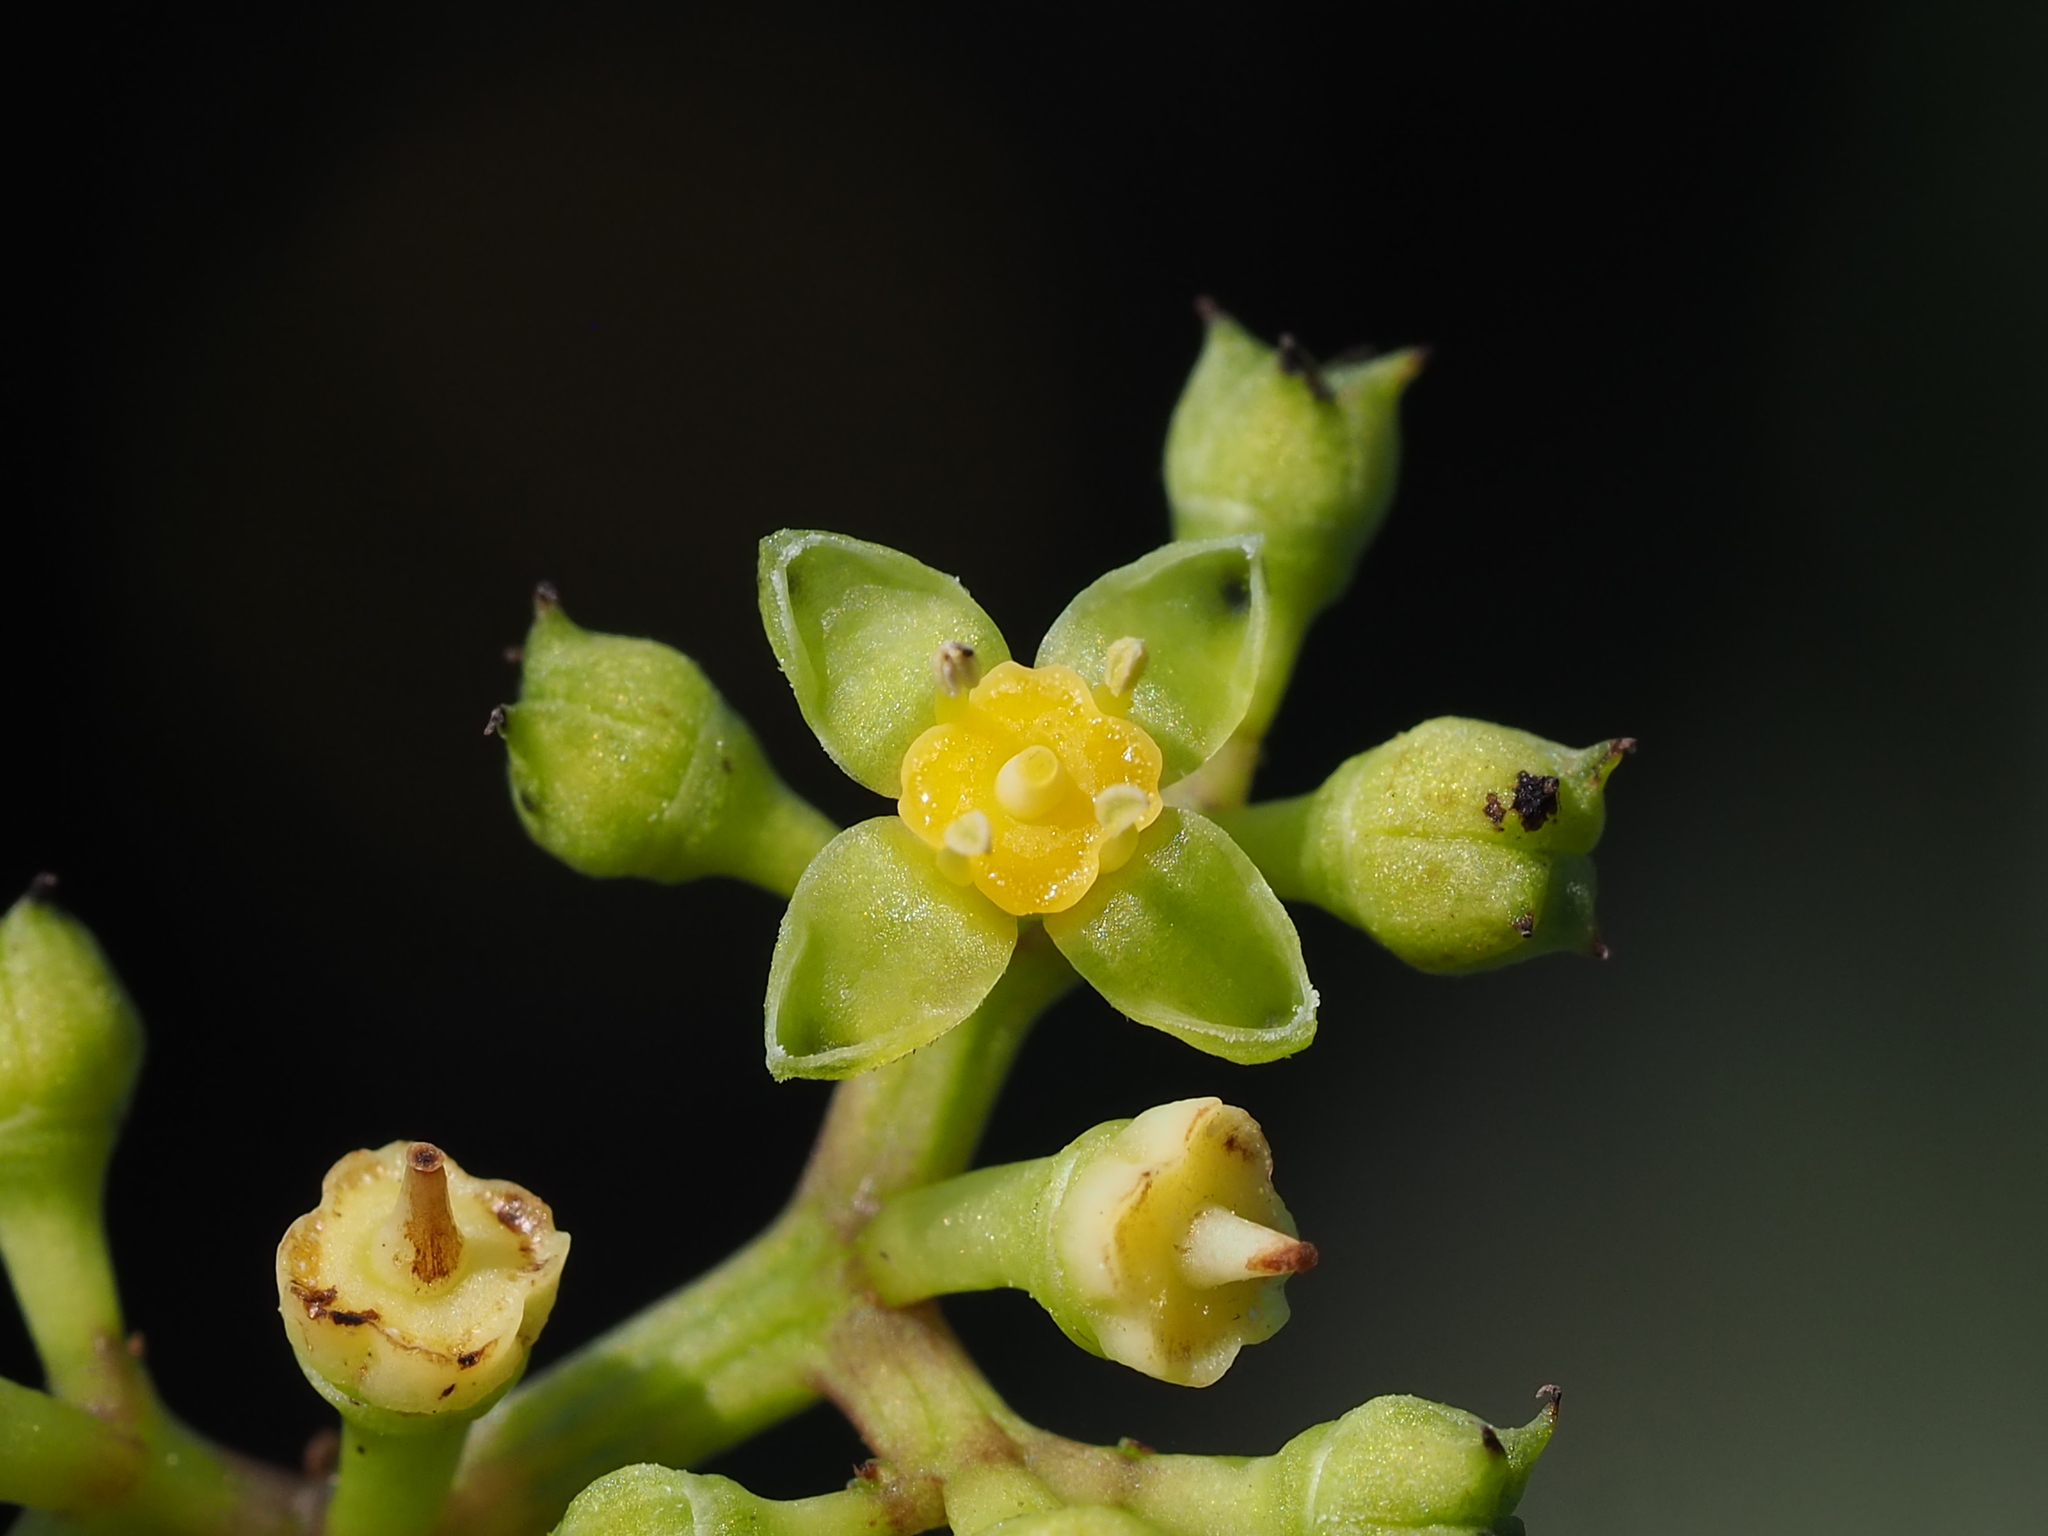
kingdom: Plantae
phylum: Tracheophyta
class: Magnoliopsida
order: Vitales
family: Vitaceae
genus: Causonis
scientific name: Causonis corniculata
